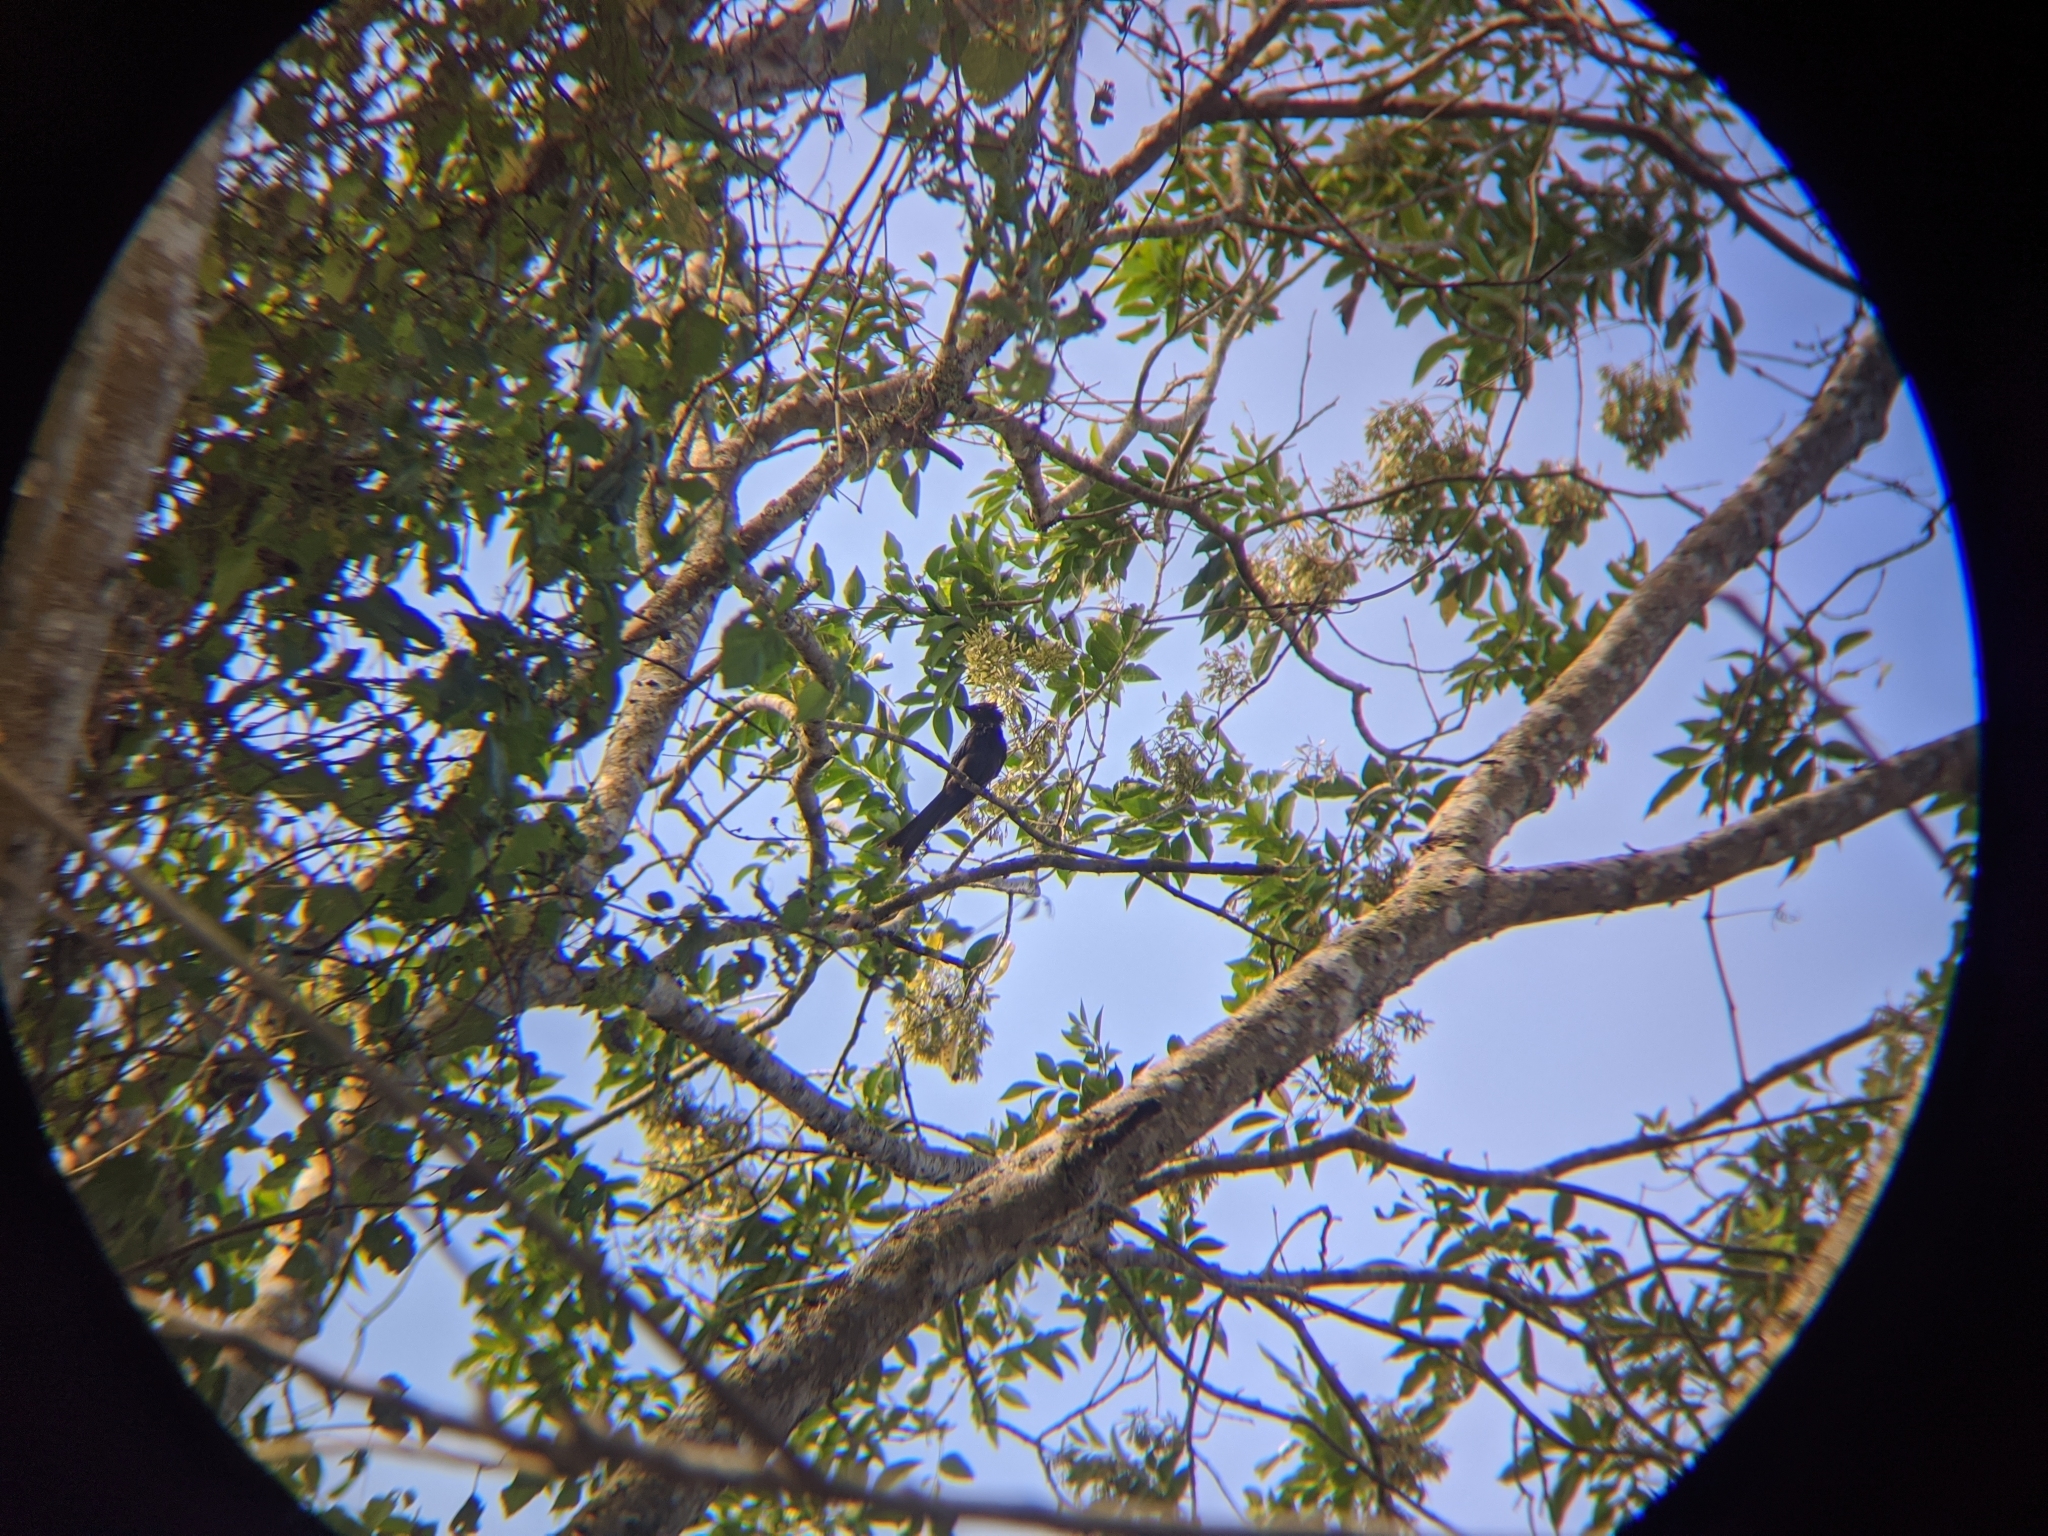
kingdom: Animalia
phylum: Chordata
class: Aves
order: Passeriformes
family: Dicruridae
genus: Dicrurus
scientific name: Dicrurus aeneus
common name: Bronzed drongo
